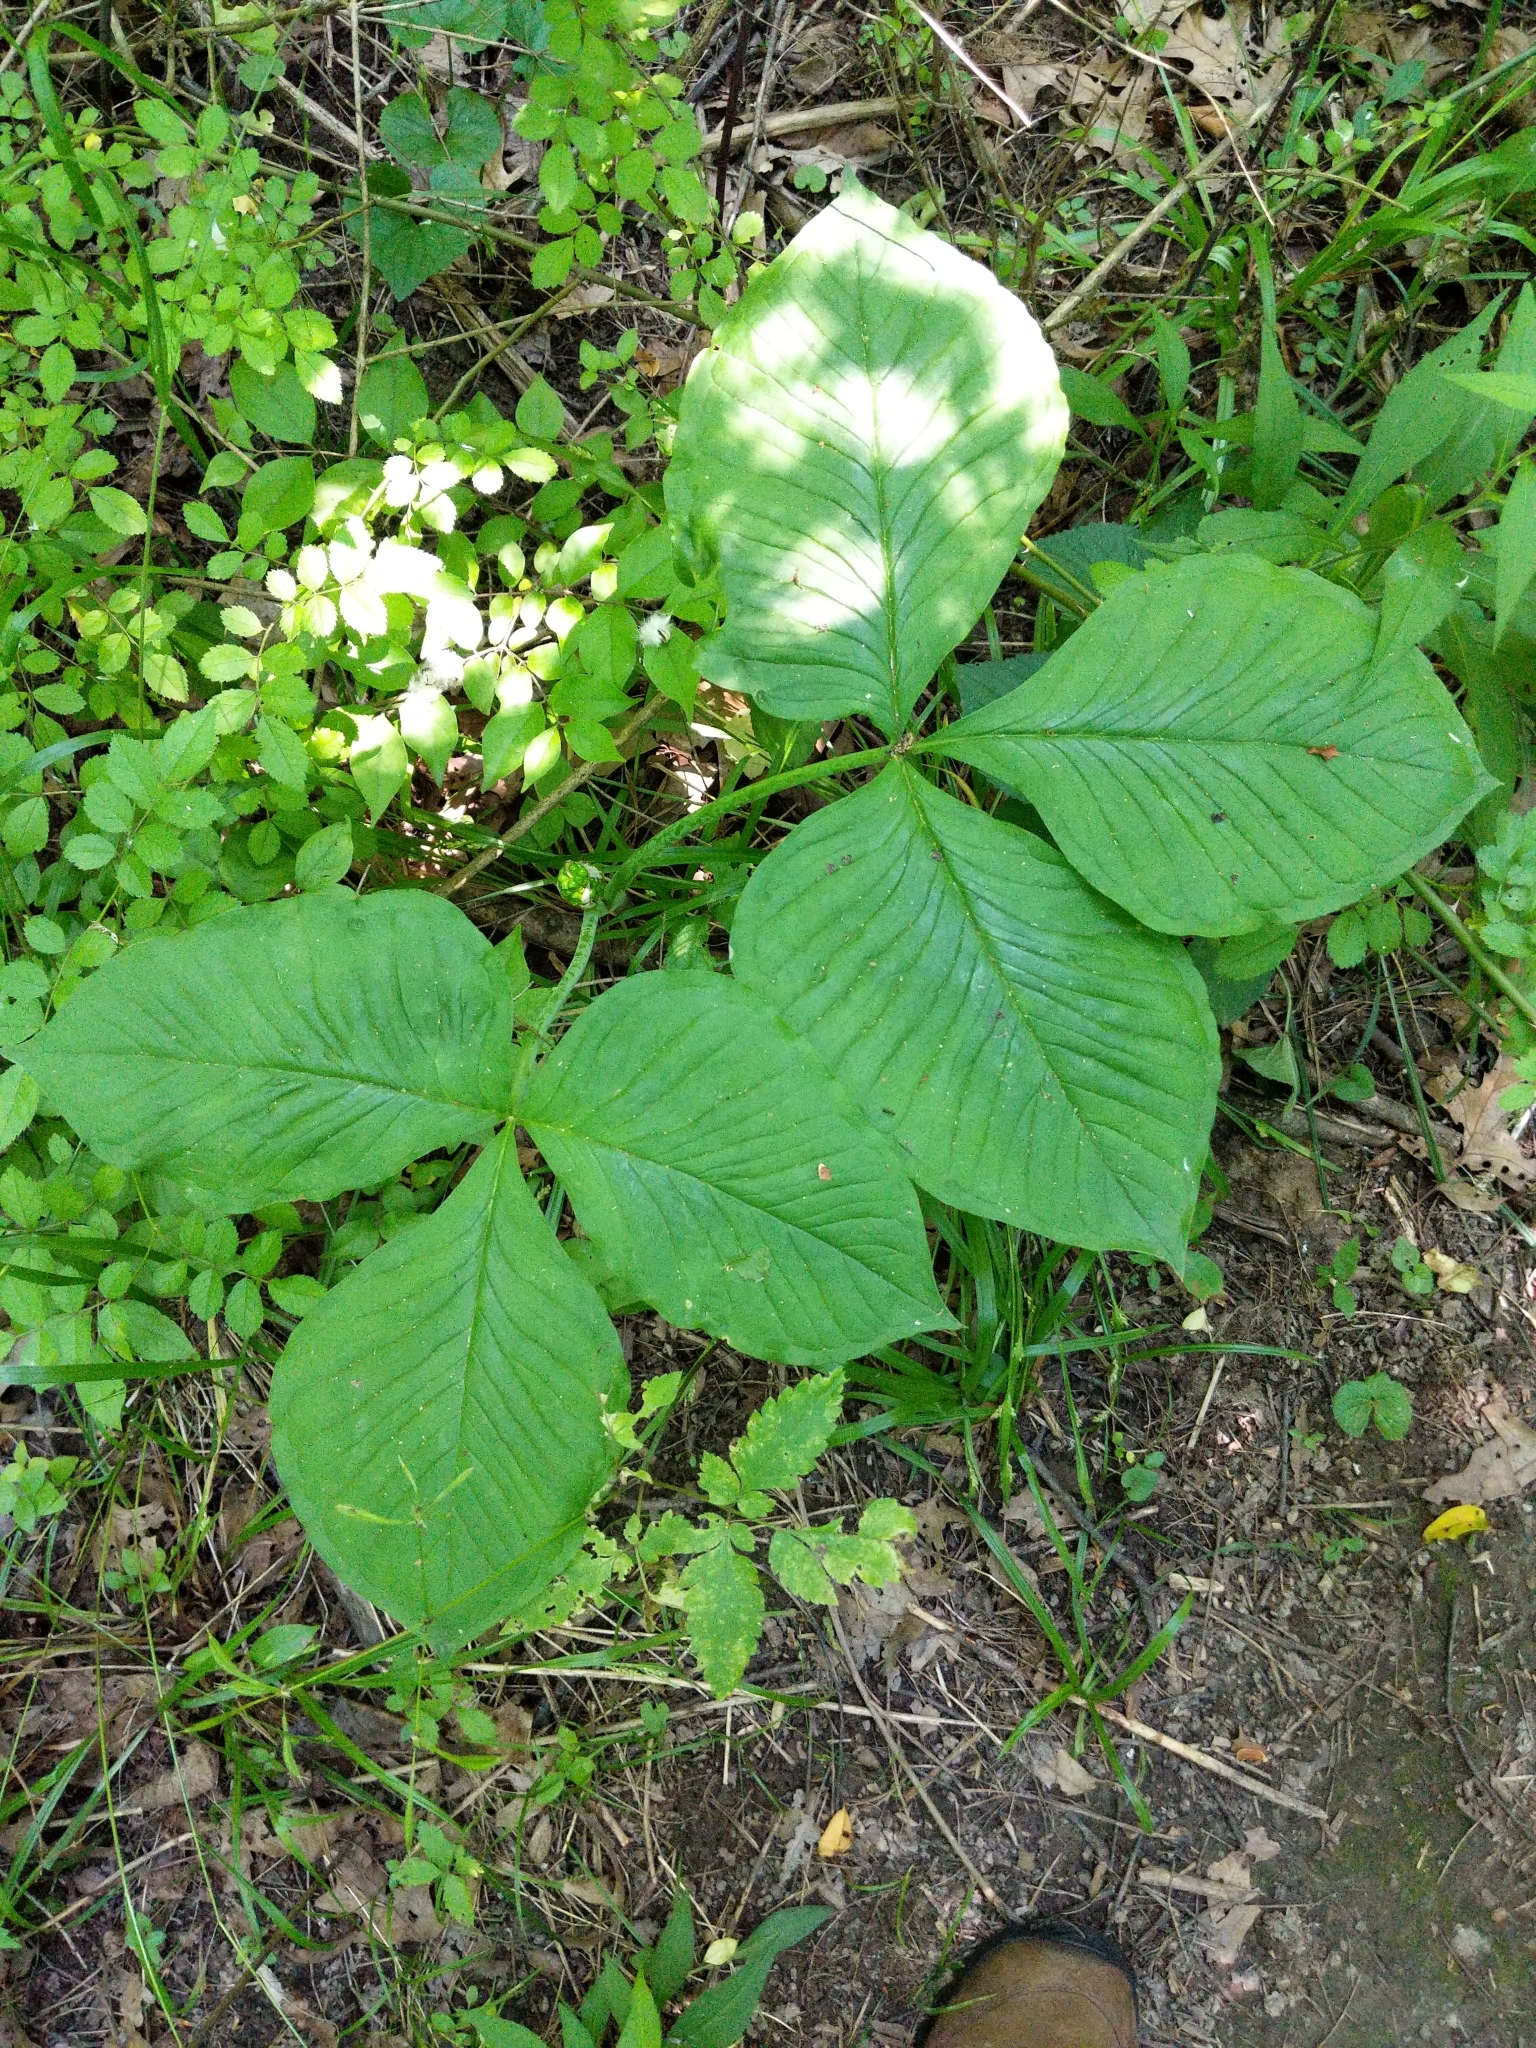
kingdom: Plantae
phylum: Tracheophyta
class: Liliopsida
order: Alismatales
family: Araceae
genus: Arisaema
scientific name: Arisaema triphyllum
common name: Jack-in-the-pulpit
